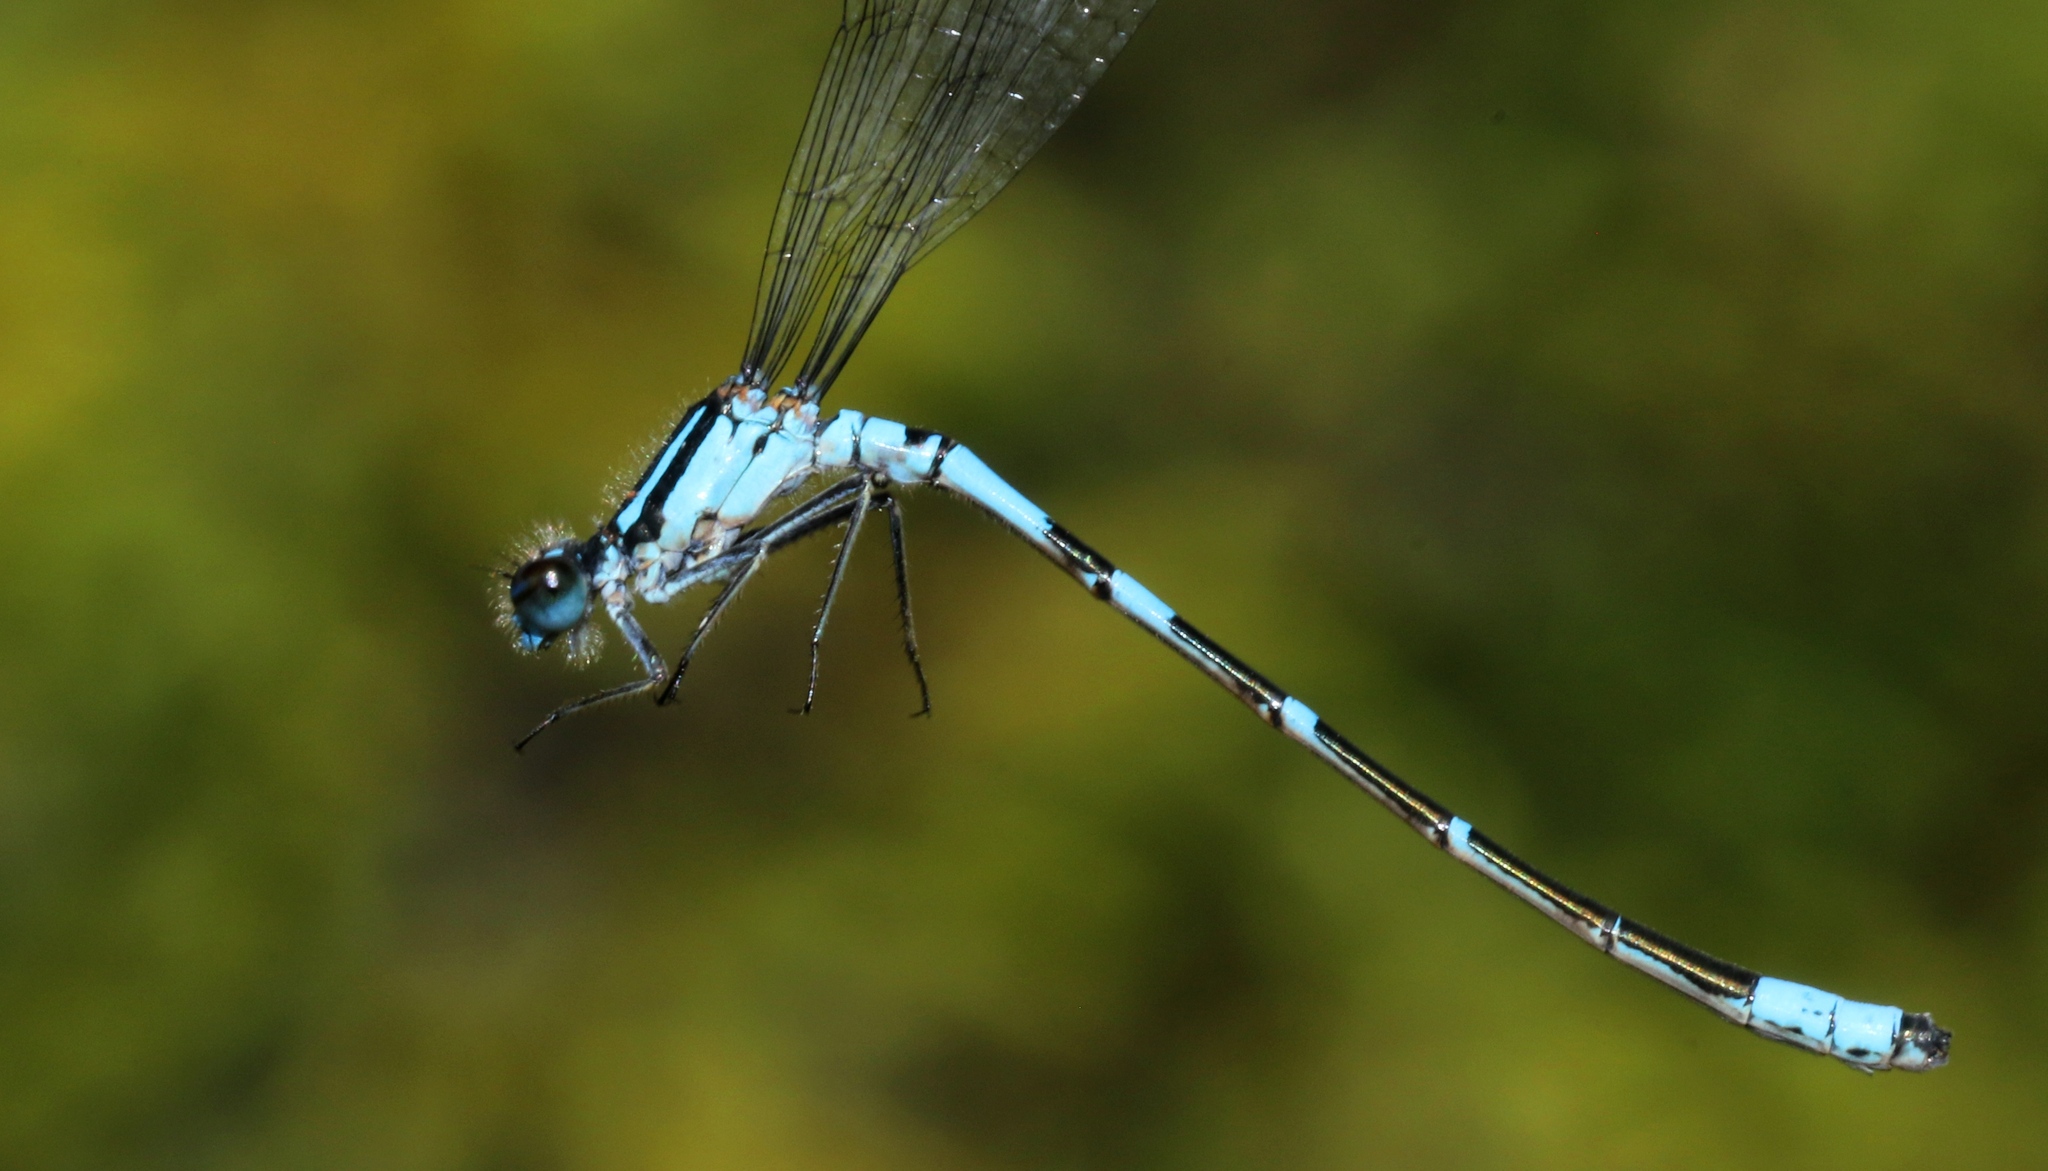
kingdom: Animalia
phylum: Arthropoda
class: Insecta
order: Odonata
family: Coenagrionidae
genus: Enallagma
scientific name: Enallagma ebrium
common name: Marsh bluet
